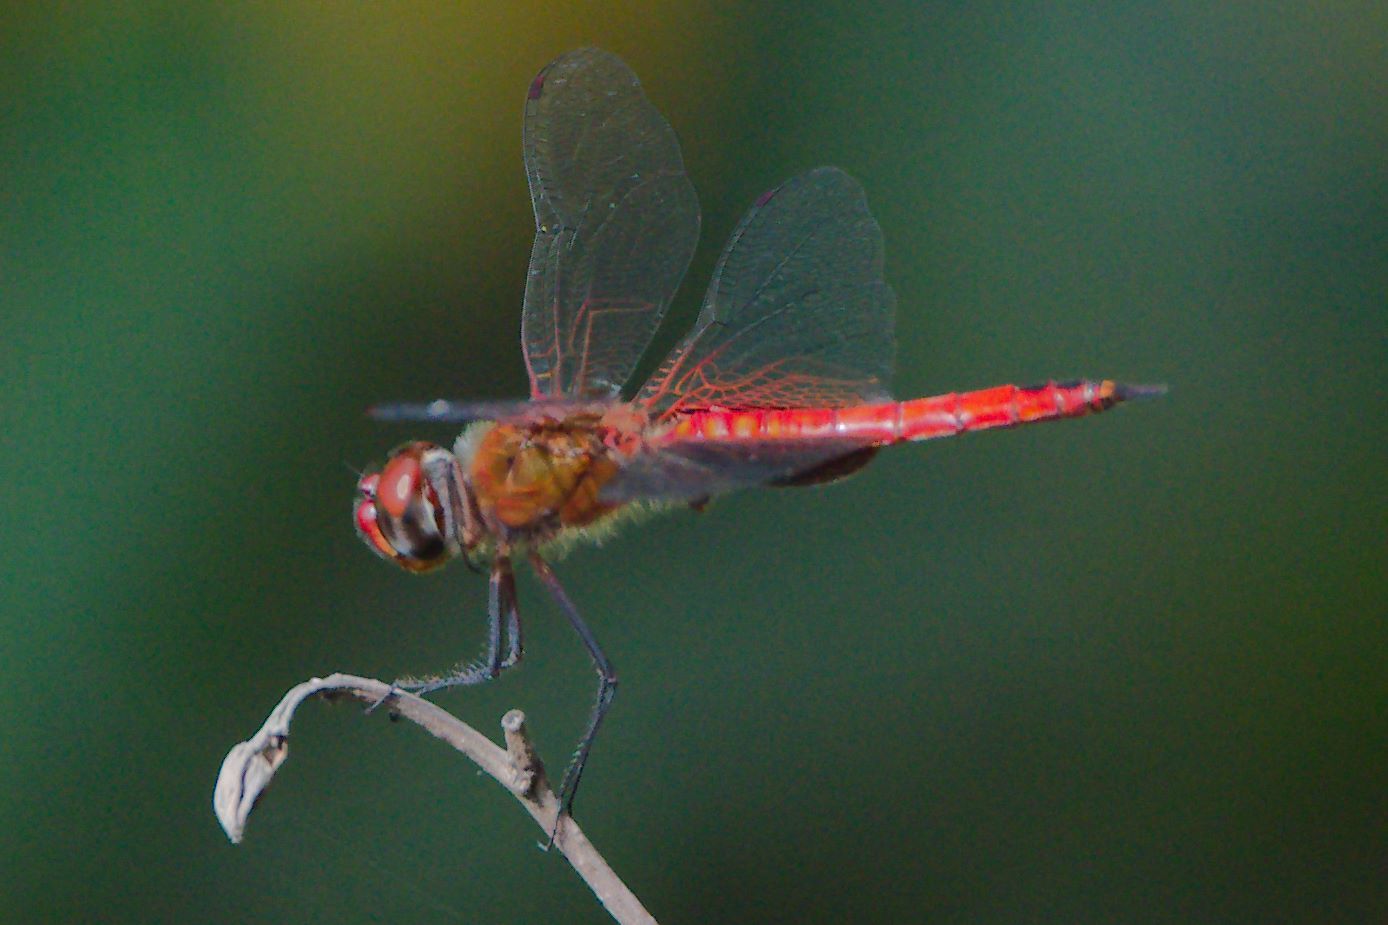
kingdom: Animalia
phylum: Arthropoda
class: Insecta
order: Odonata
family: Libellulidae
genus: Tramea
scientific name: Tramea abdominalis
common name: Vermilion saddlebags
